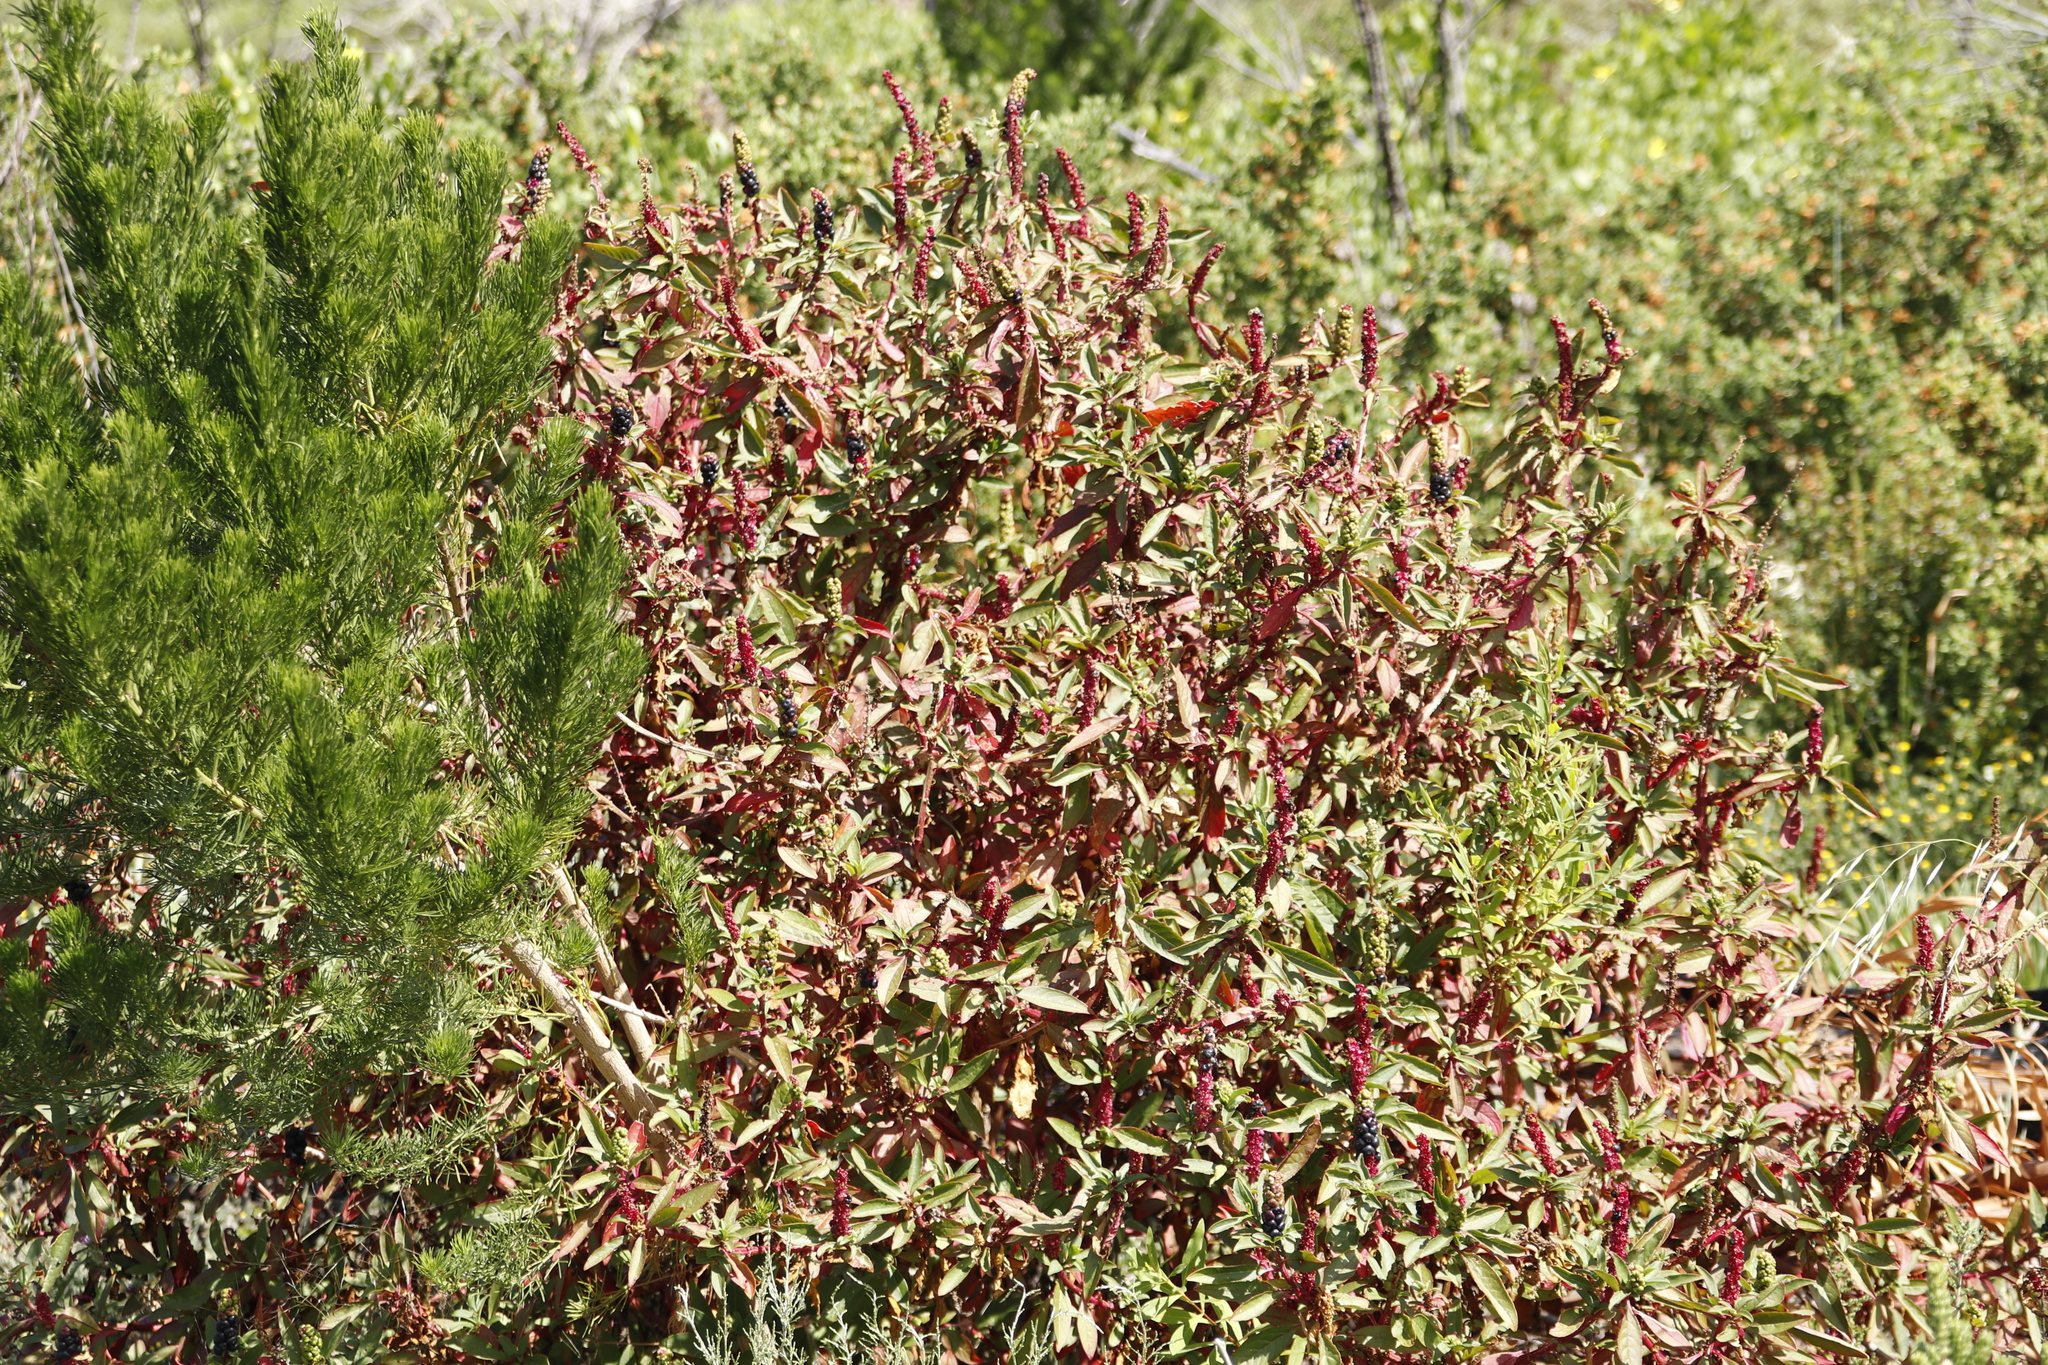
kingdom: Plantae
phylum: Tracheophyta
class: Magnoliopsida
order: Caryophyllales
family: Phytolaccaceae
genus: Phytolacca
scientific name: Phytolacca icosandra
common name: Button pokeweed
